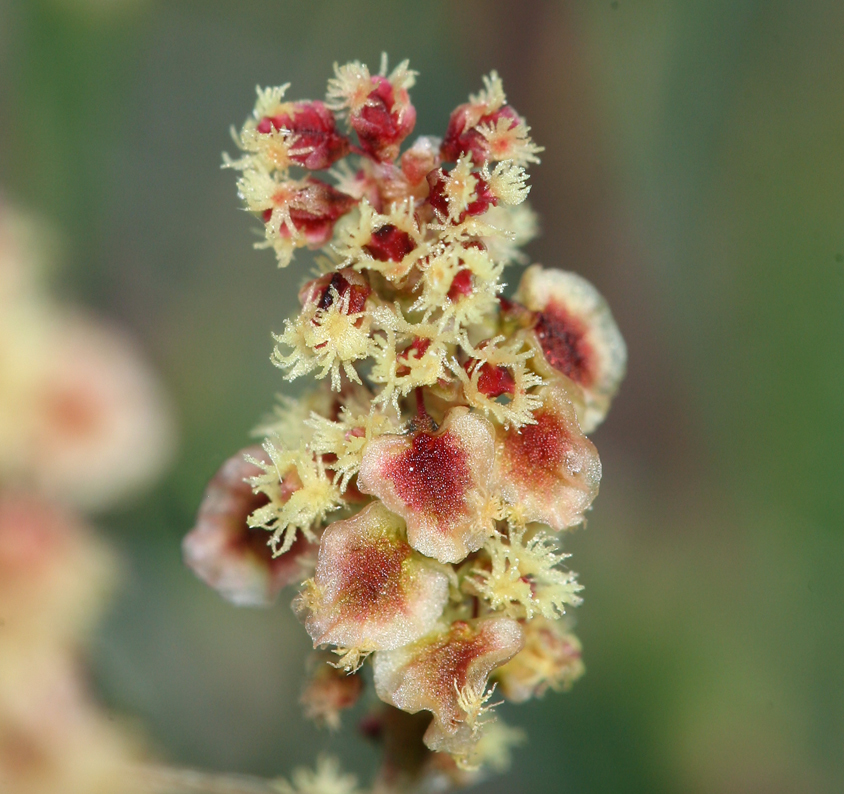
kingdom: Plantae
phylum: Tracheophyta
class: Magnoliopsida
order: Caryophyllales
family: Polygonaceae
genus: Rumex
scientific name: Rumex paucifolius
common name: Alpine sheep sorrel
